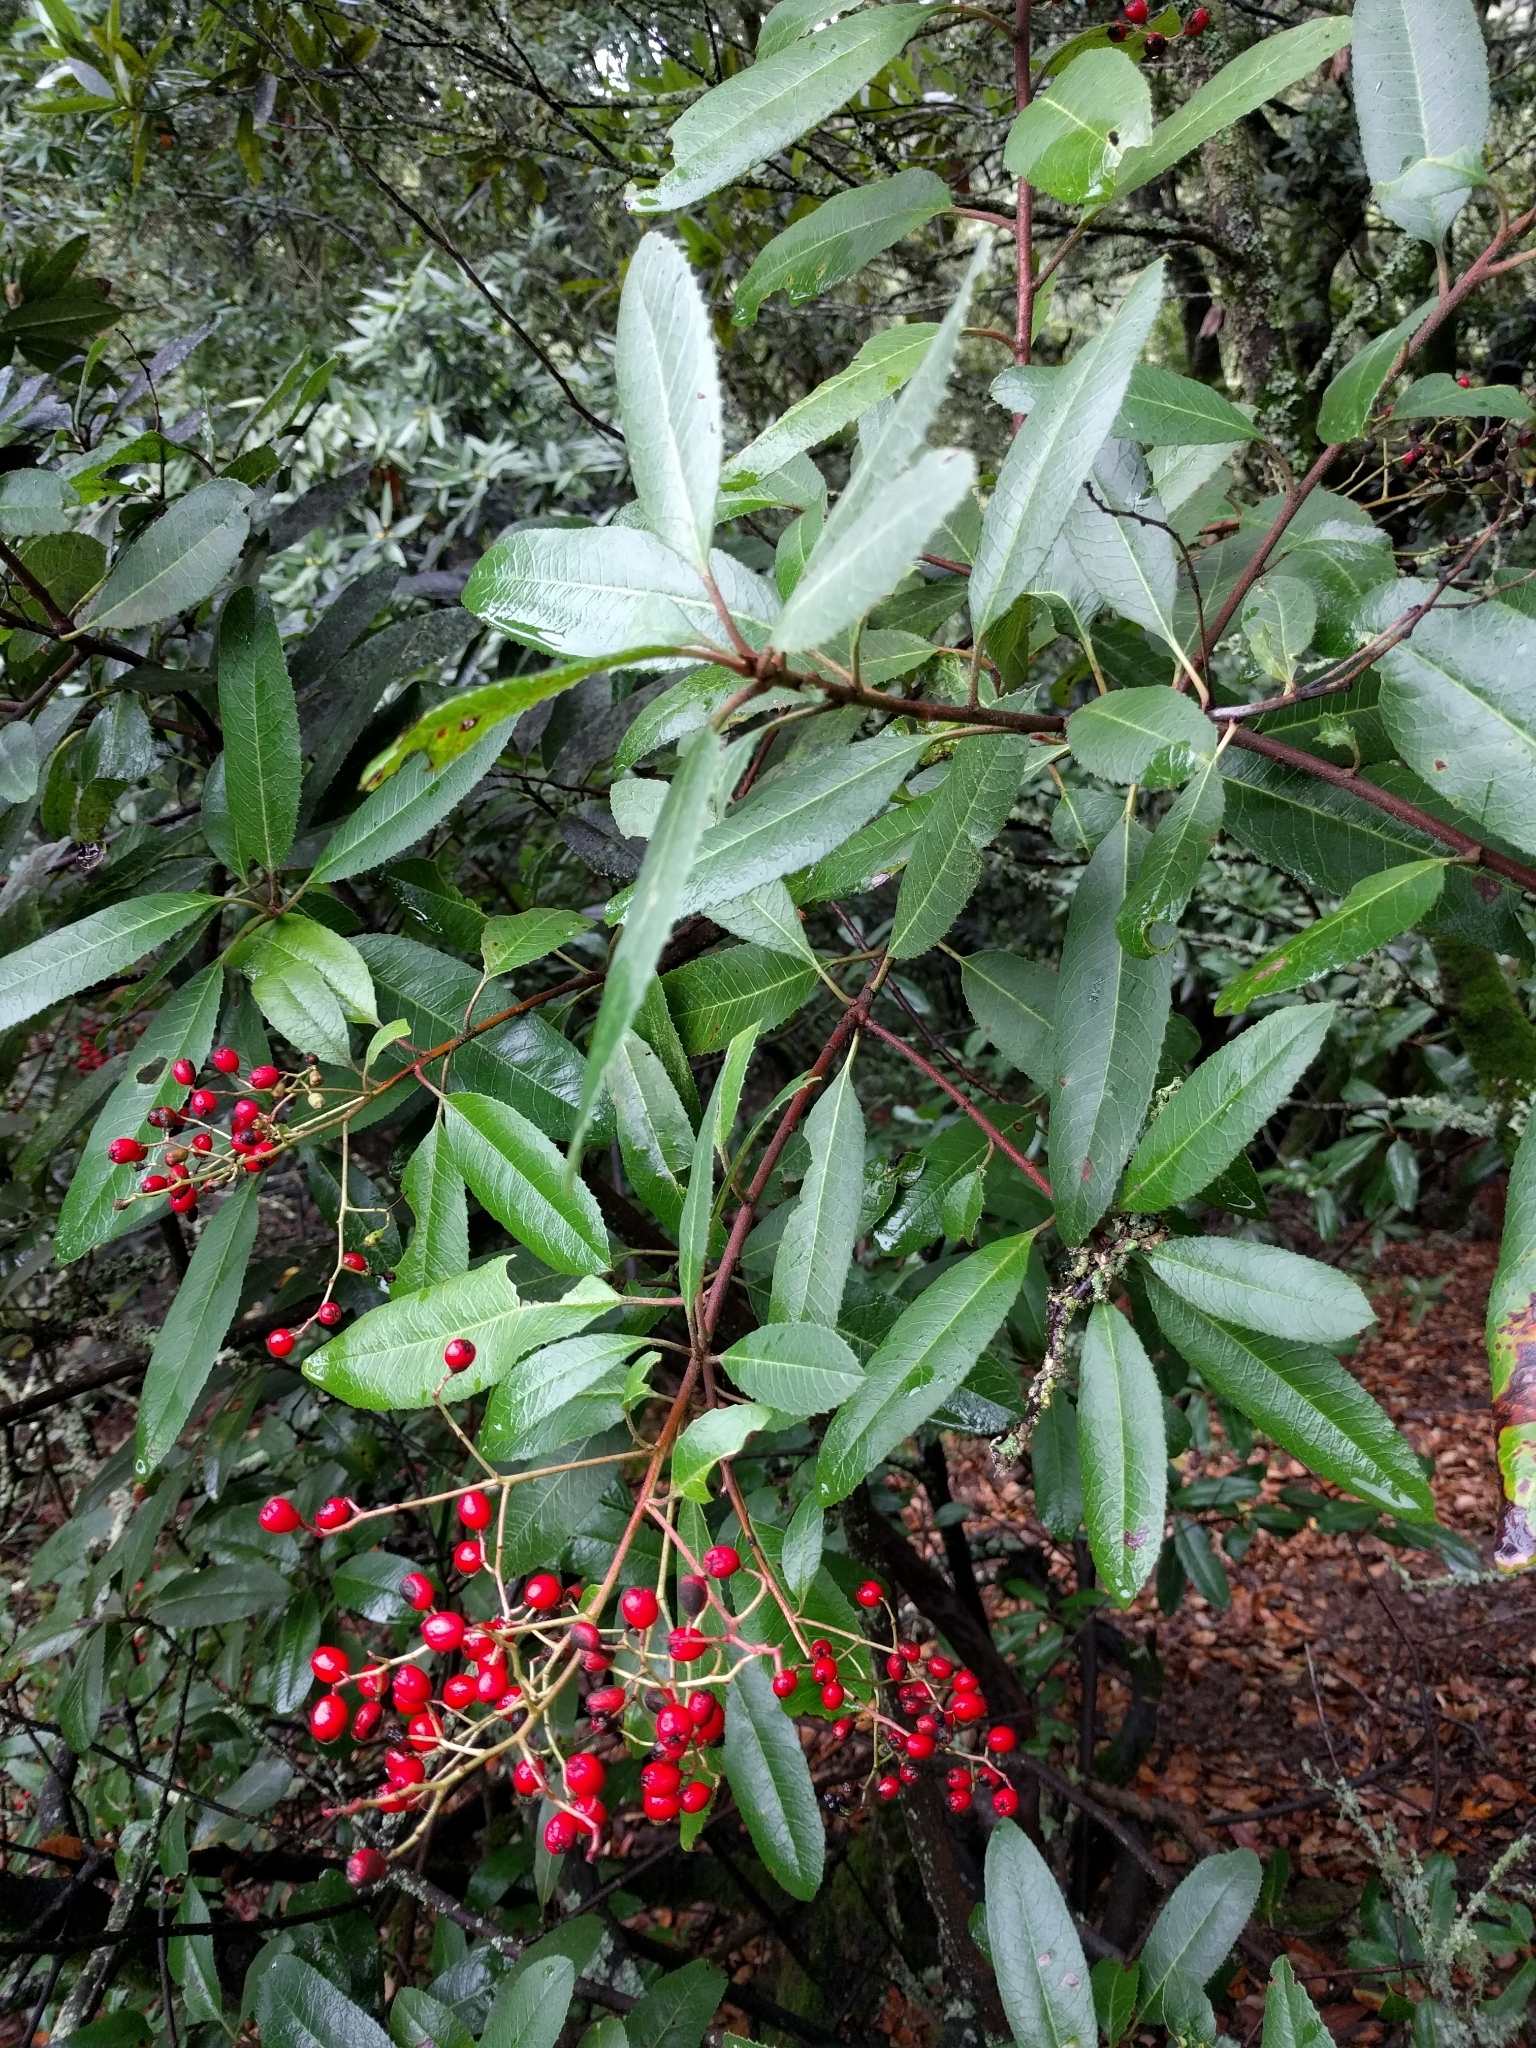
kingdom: Plantae
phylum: Tracheophyta
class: Magnoliopsida
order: Rosales
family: Rosaceae
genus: Heteromeles
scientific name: Heteromeles arbutifolia
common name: California-holly
